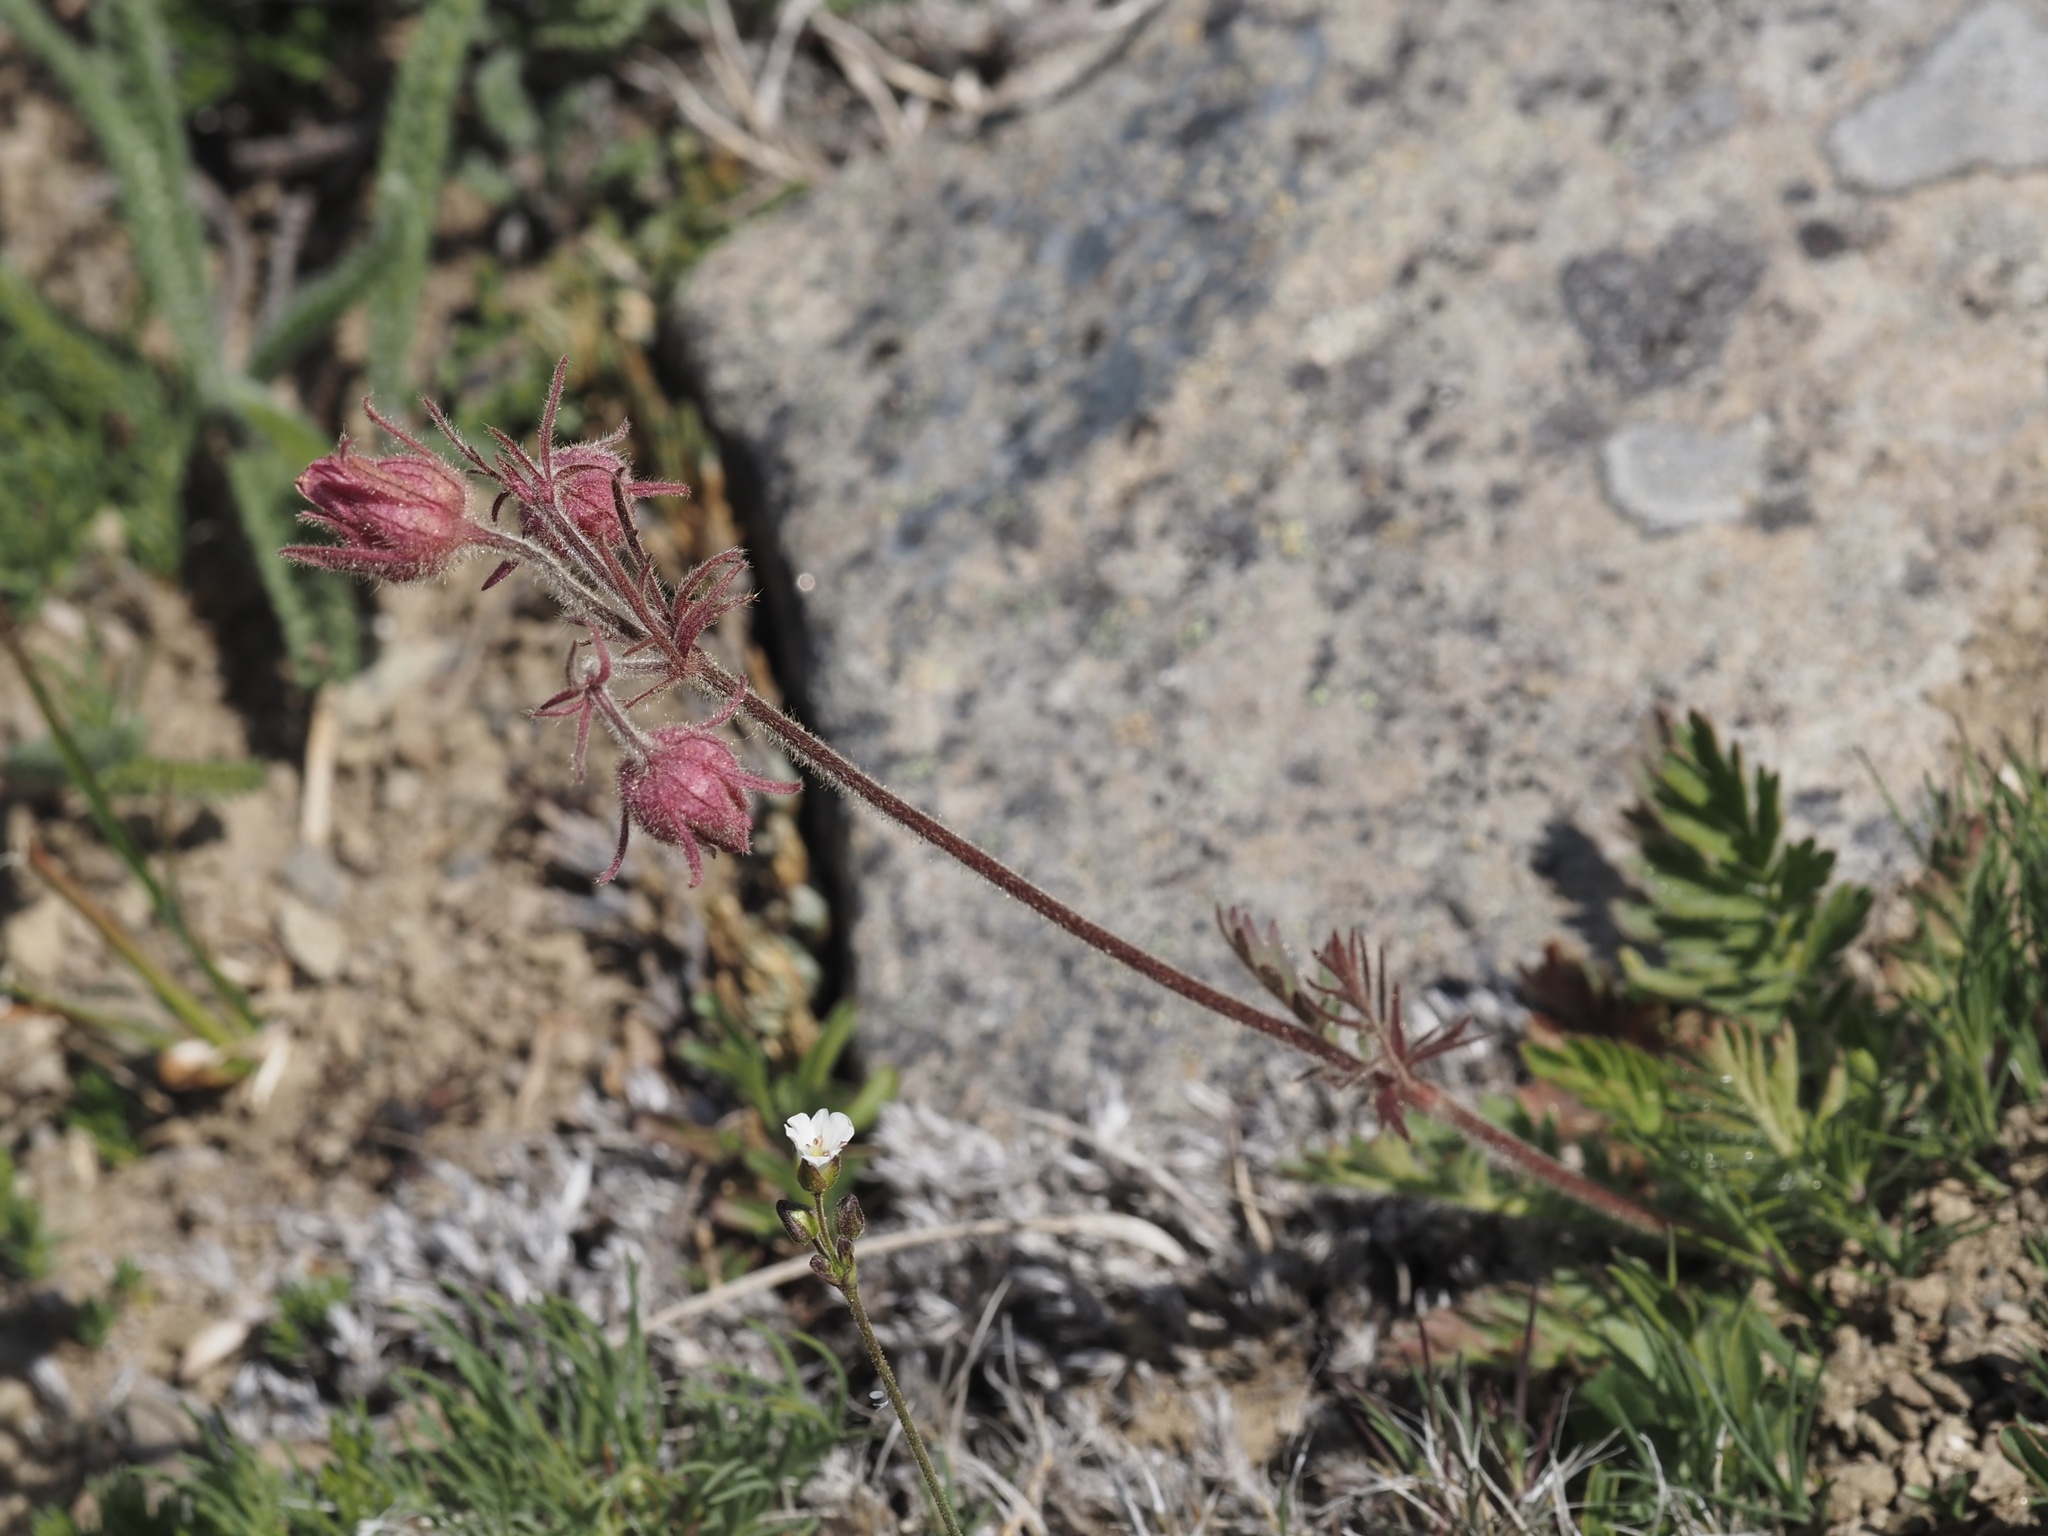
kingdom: Plantae
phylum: Tracheophyta
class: Magnoliopsida
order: Rosales
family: Rosaceae
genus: Geum
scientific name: Geum triflorum
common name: Old man's whiskers
